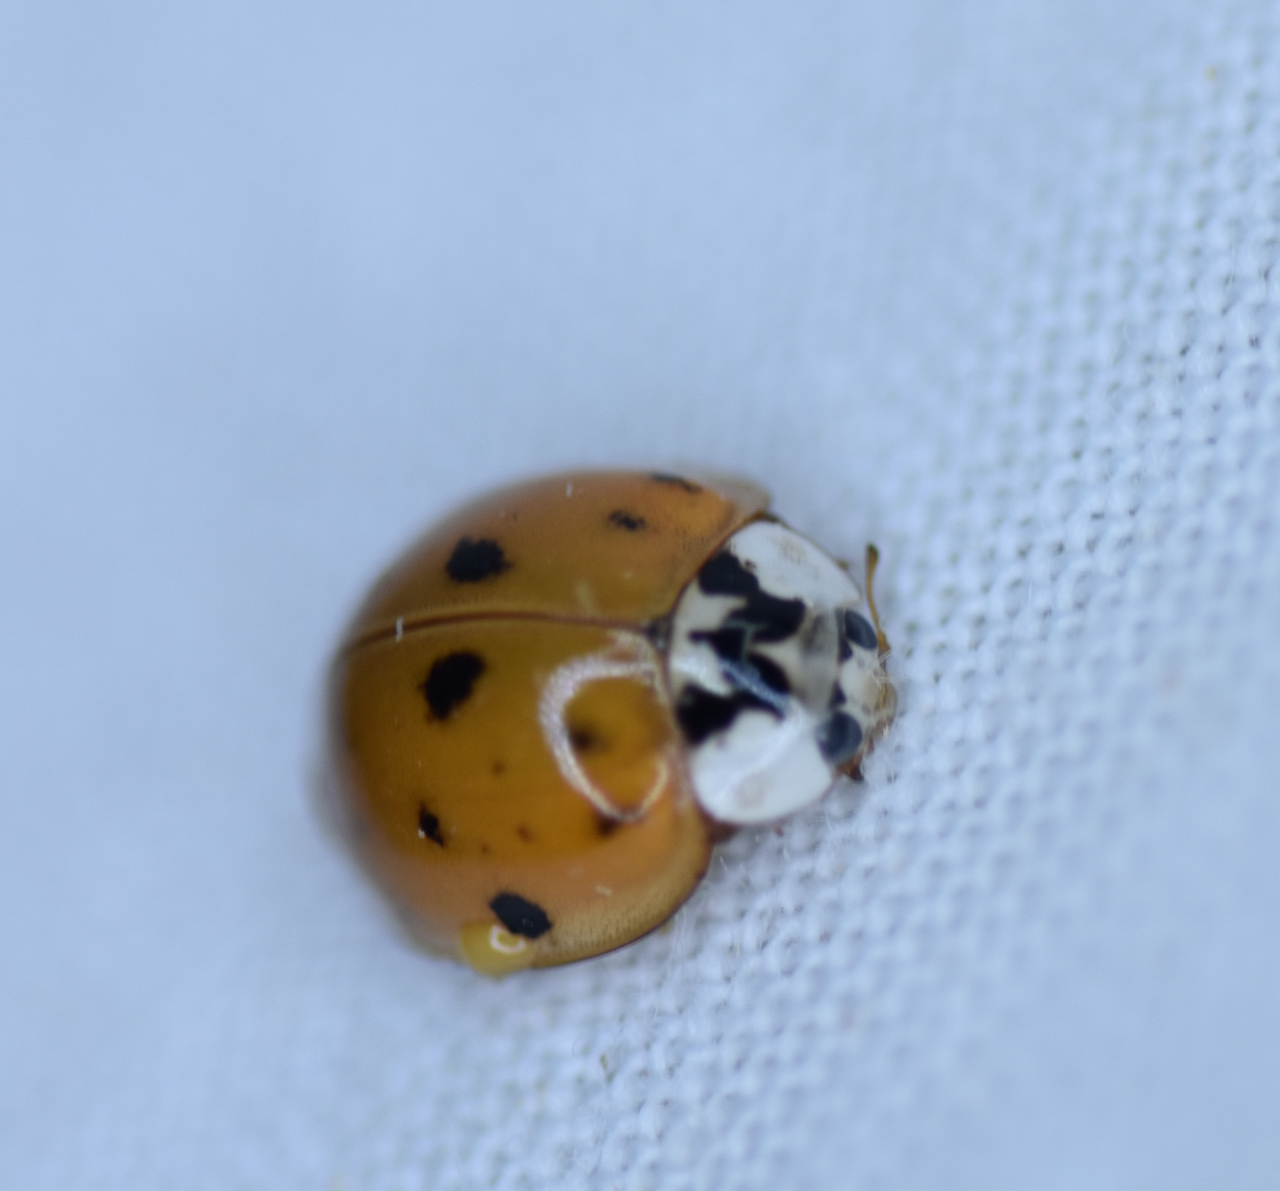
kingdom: Animalia
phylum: Arthropoda
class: Insecta
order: Coleoptera
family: Coccinellidae
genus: Harmonia
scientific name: Harmonia axyridis
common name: Harlequin ladybird
